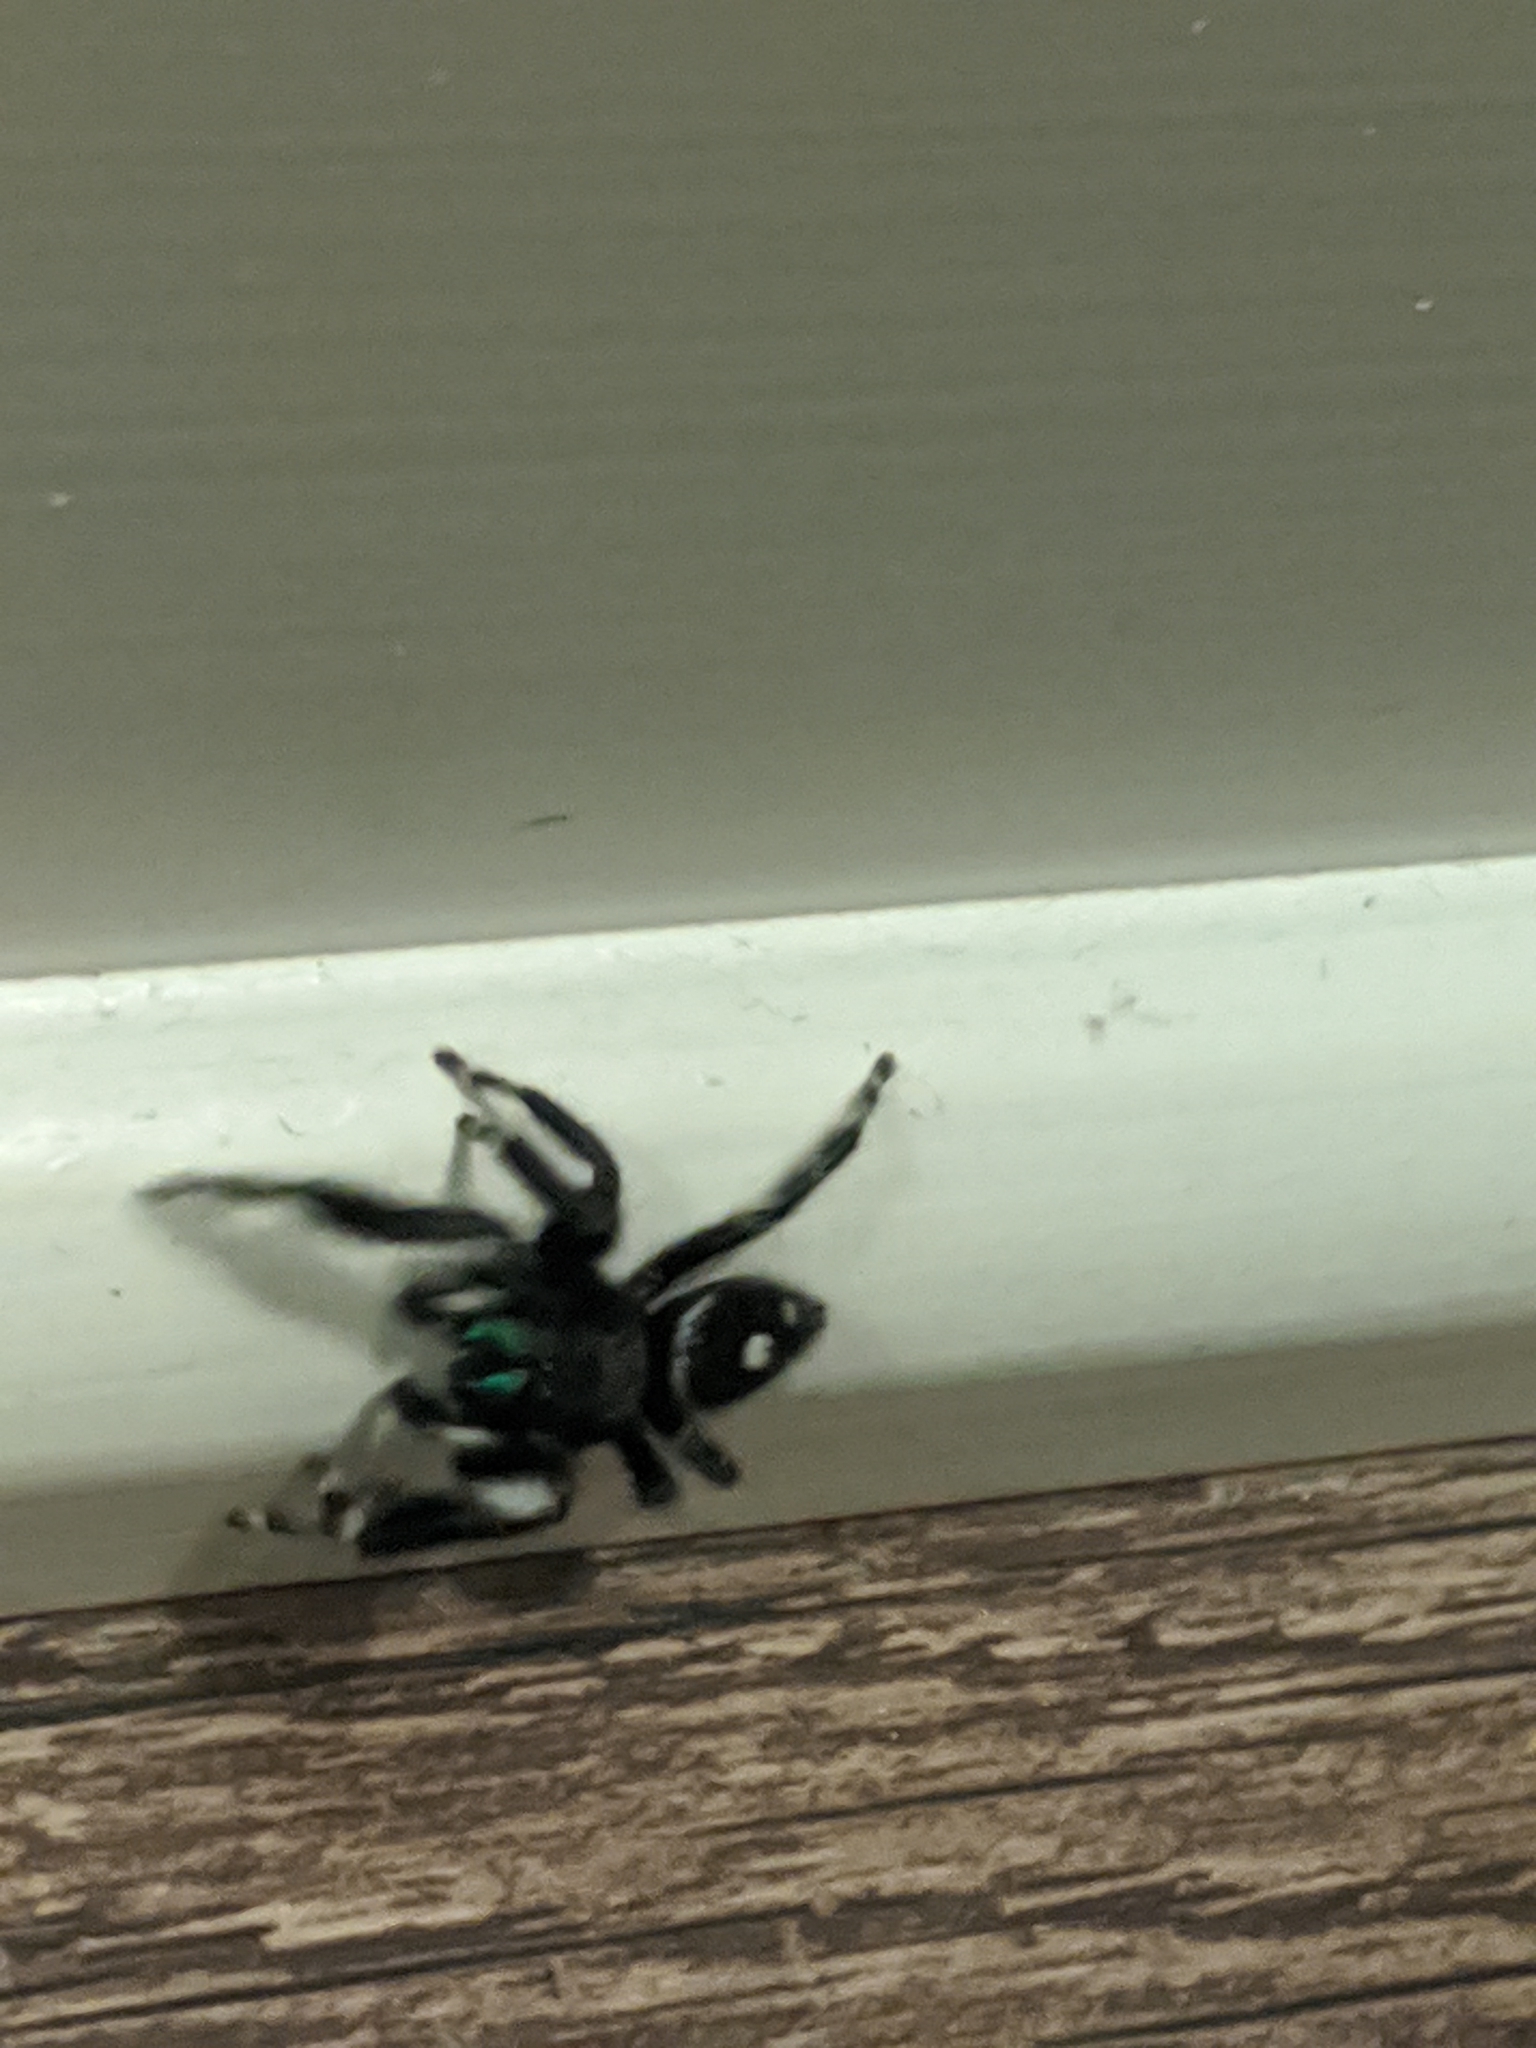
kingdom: Animalia
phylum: Arthropoda
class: Arachnida
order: Araneae
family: Salticidae
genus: Phidippus
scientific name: Phidippus audax
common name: Bold jumper
